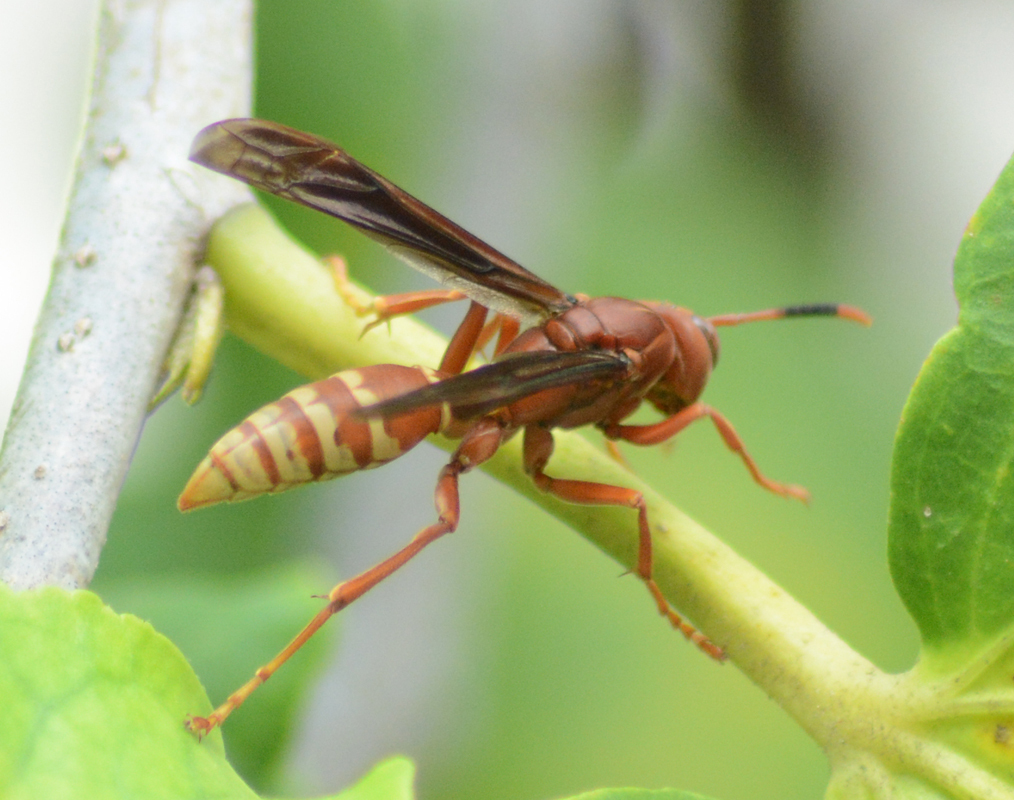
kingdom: Animalia
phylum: Arthropoda
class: Insecta
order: Hymenoptera
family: Eumenidae
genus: Polistes
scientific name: Polistes mexicanus
